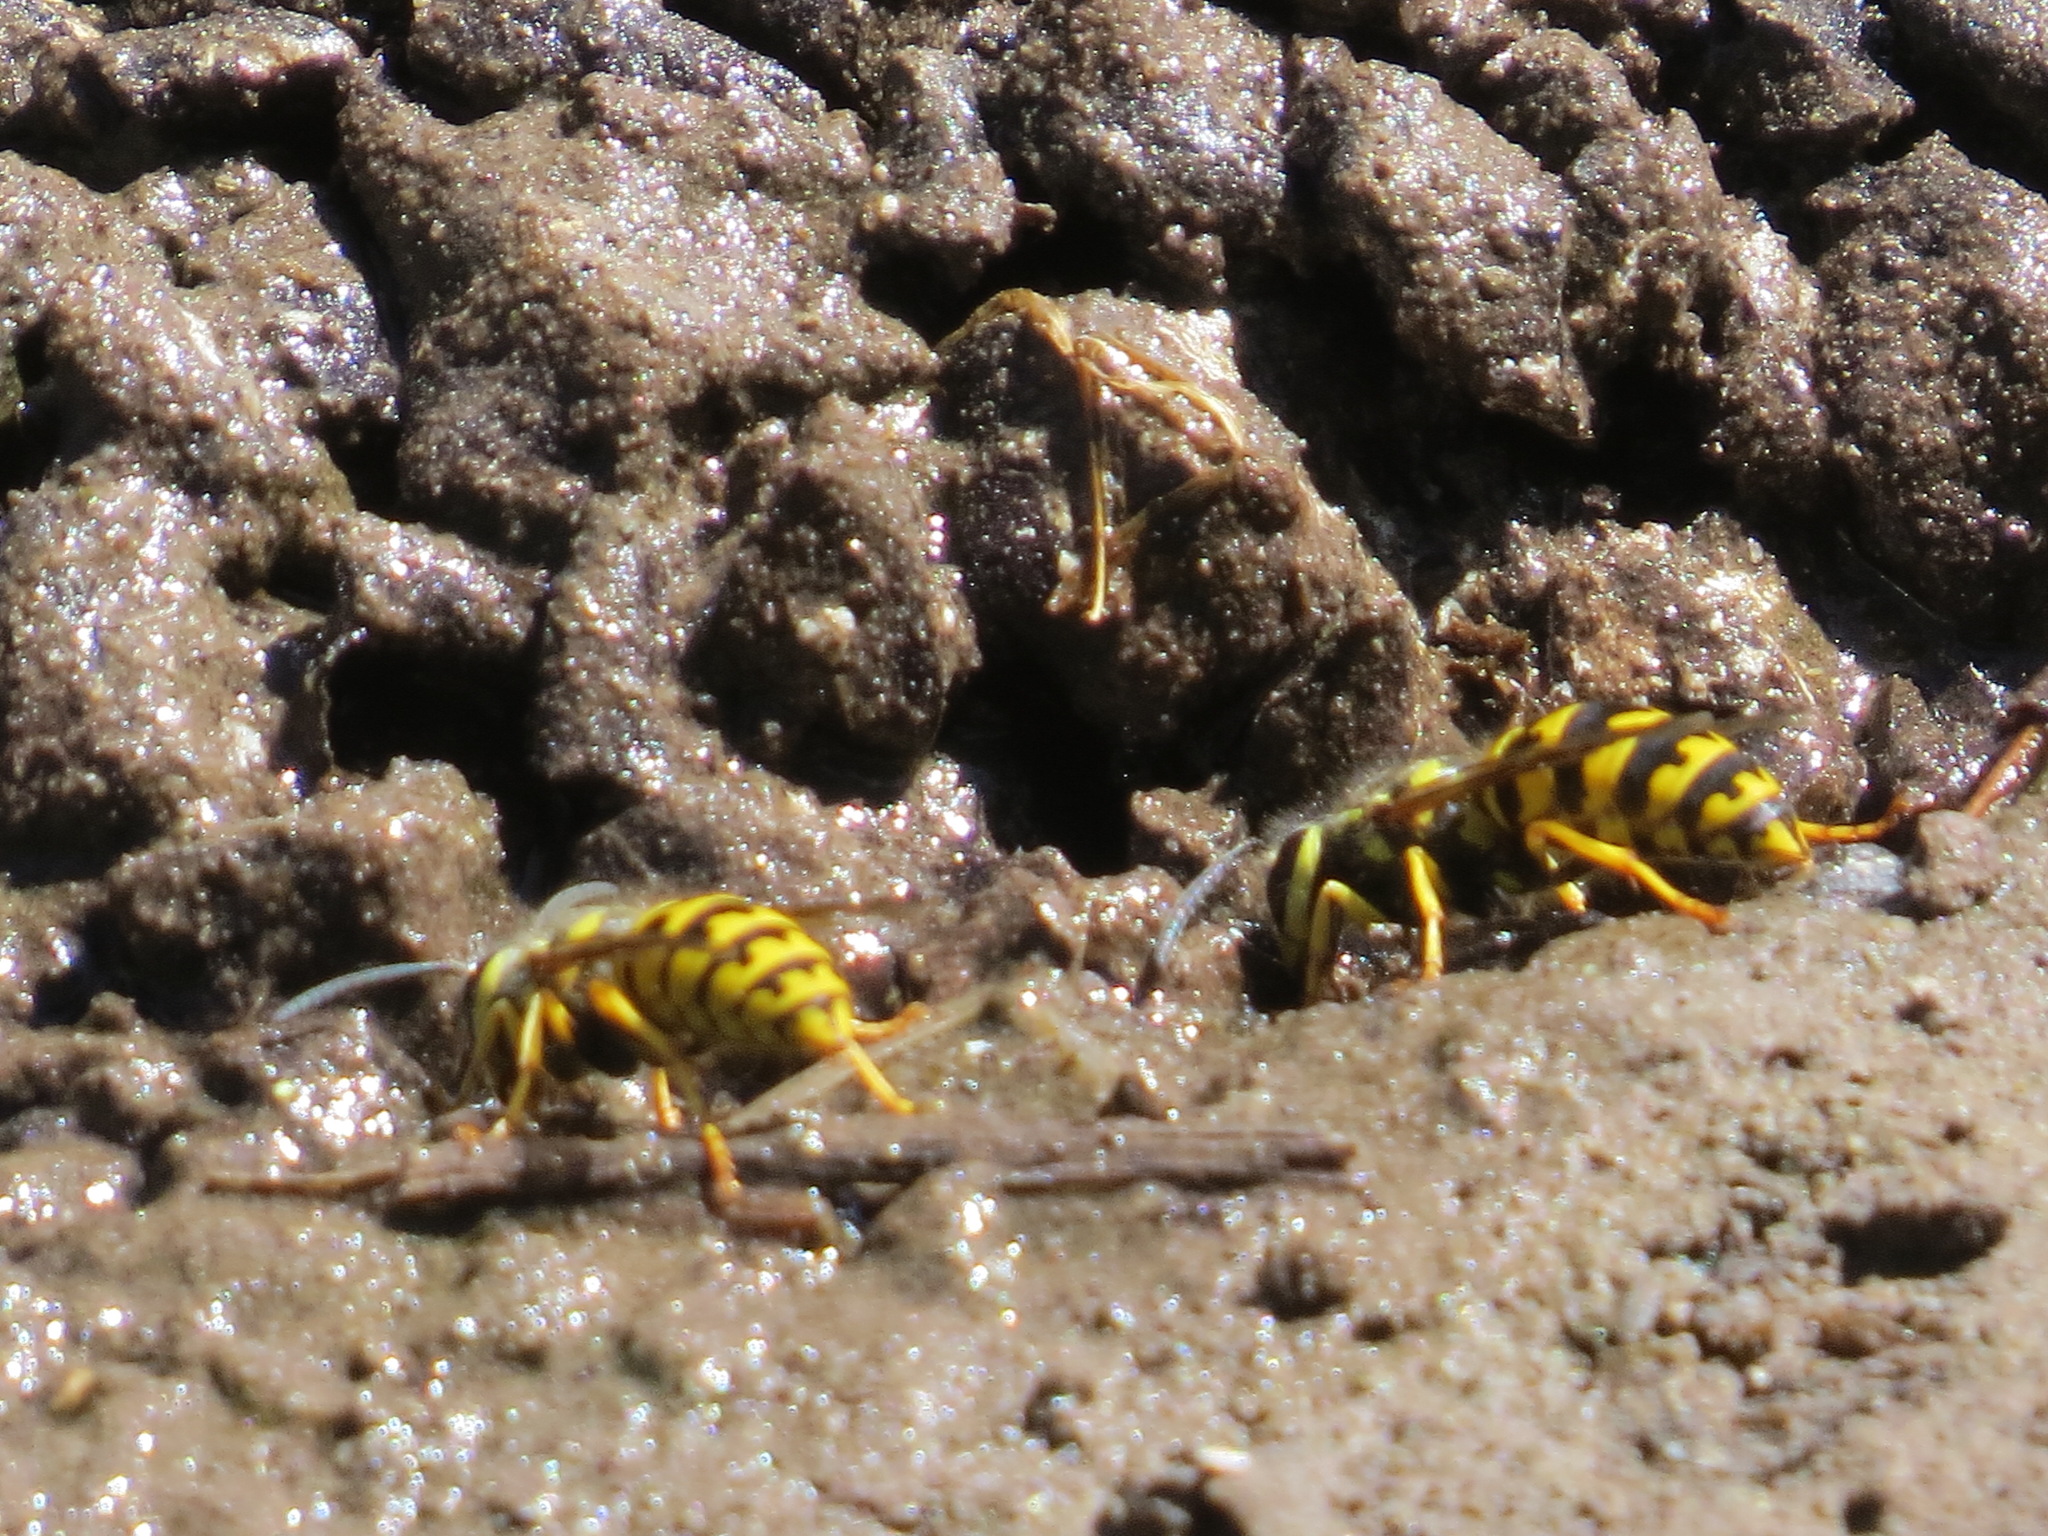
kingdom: Animalia
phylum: Arthropoda
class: Insecta
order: Hymenoptera
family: Vespidae
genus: Vespula
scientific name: Vespula pensylvanica
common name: Western yellowjacket
